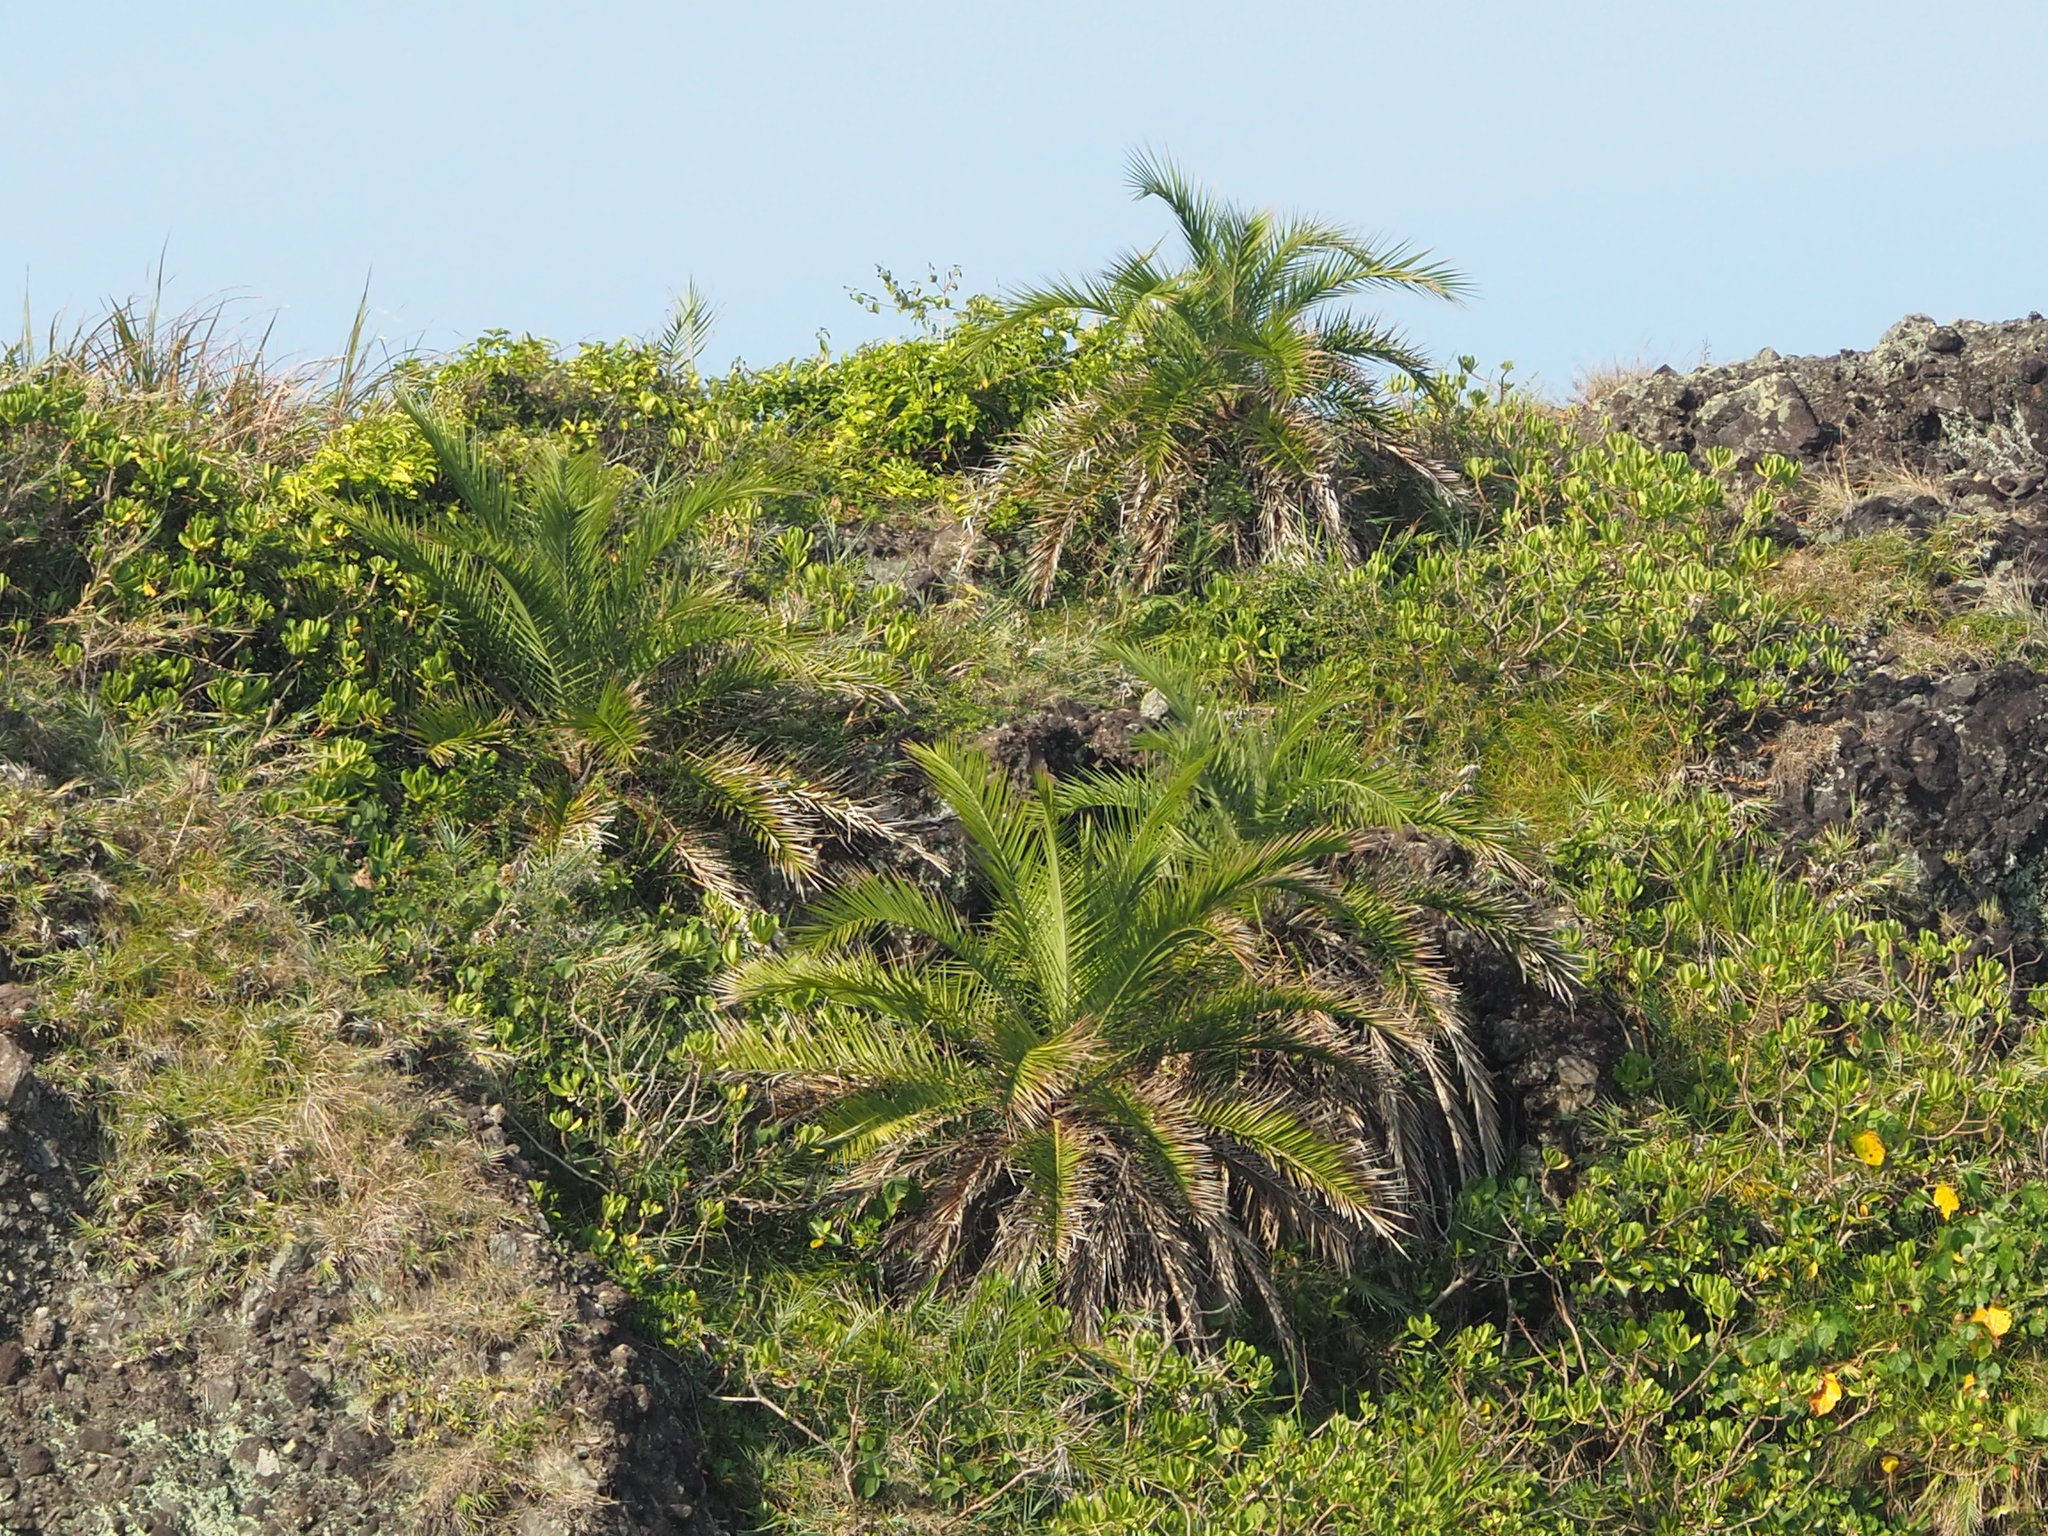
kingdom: Plantae
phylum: Tracheophyta
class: Liliopsida
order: Arecales
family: Arecaceae
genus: Phoenix
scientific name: Phoenix loureiroi
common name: Loureiro's palm
